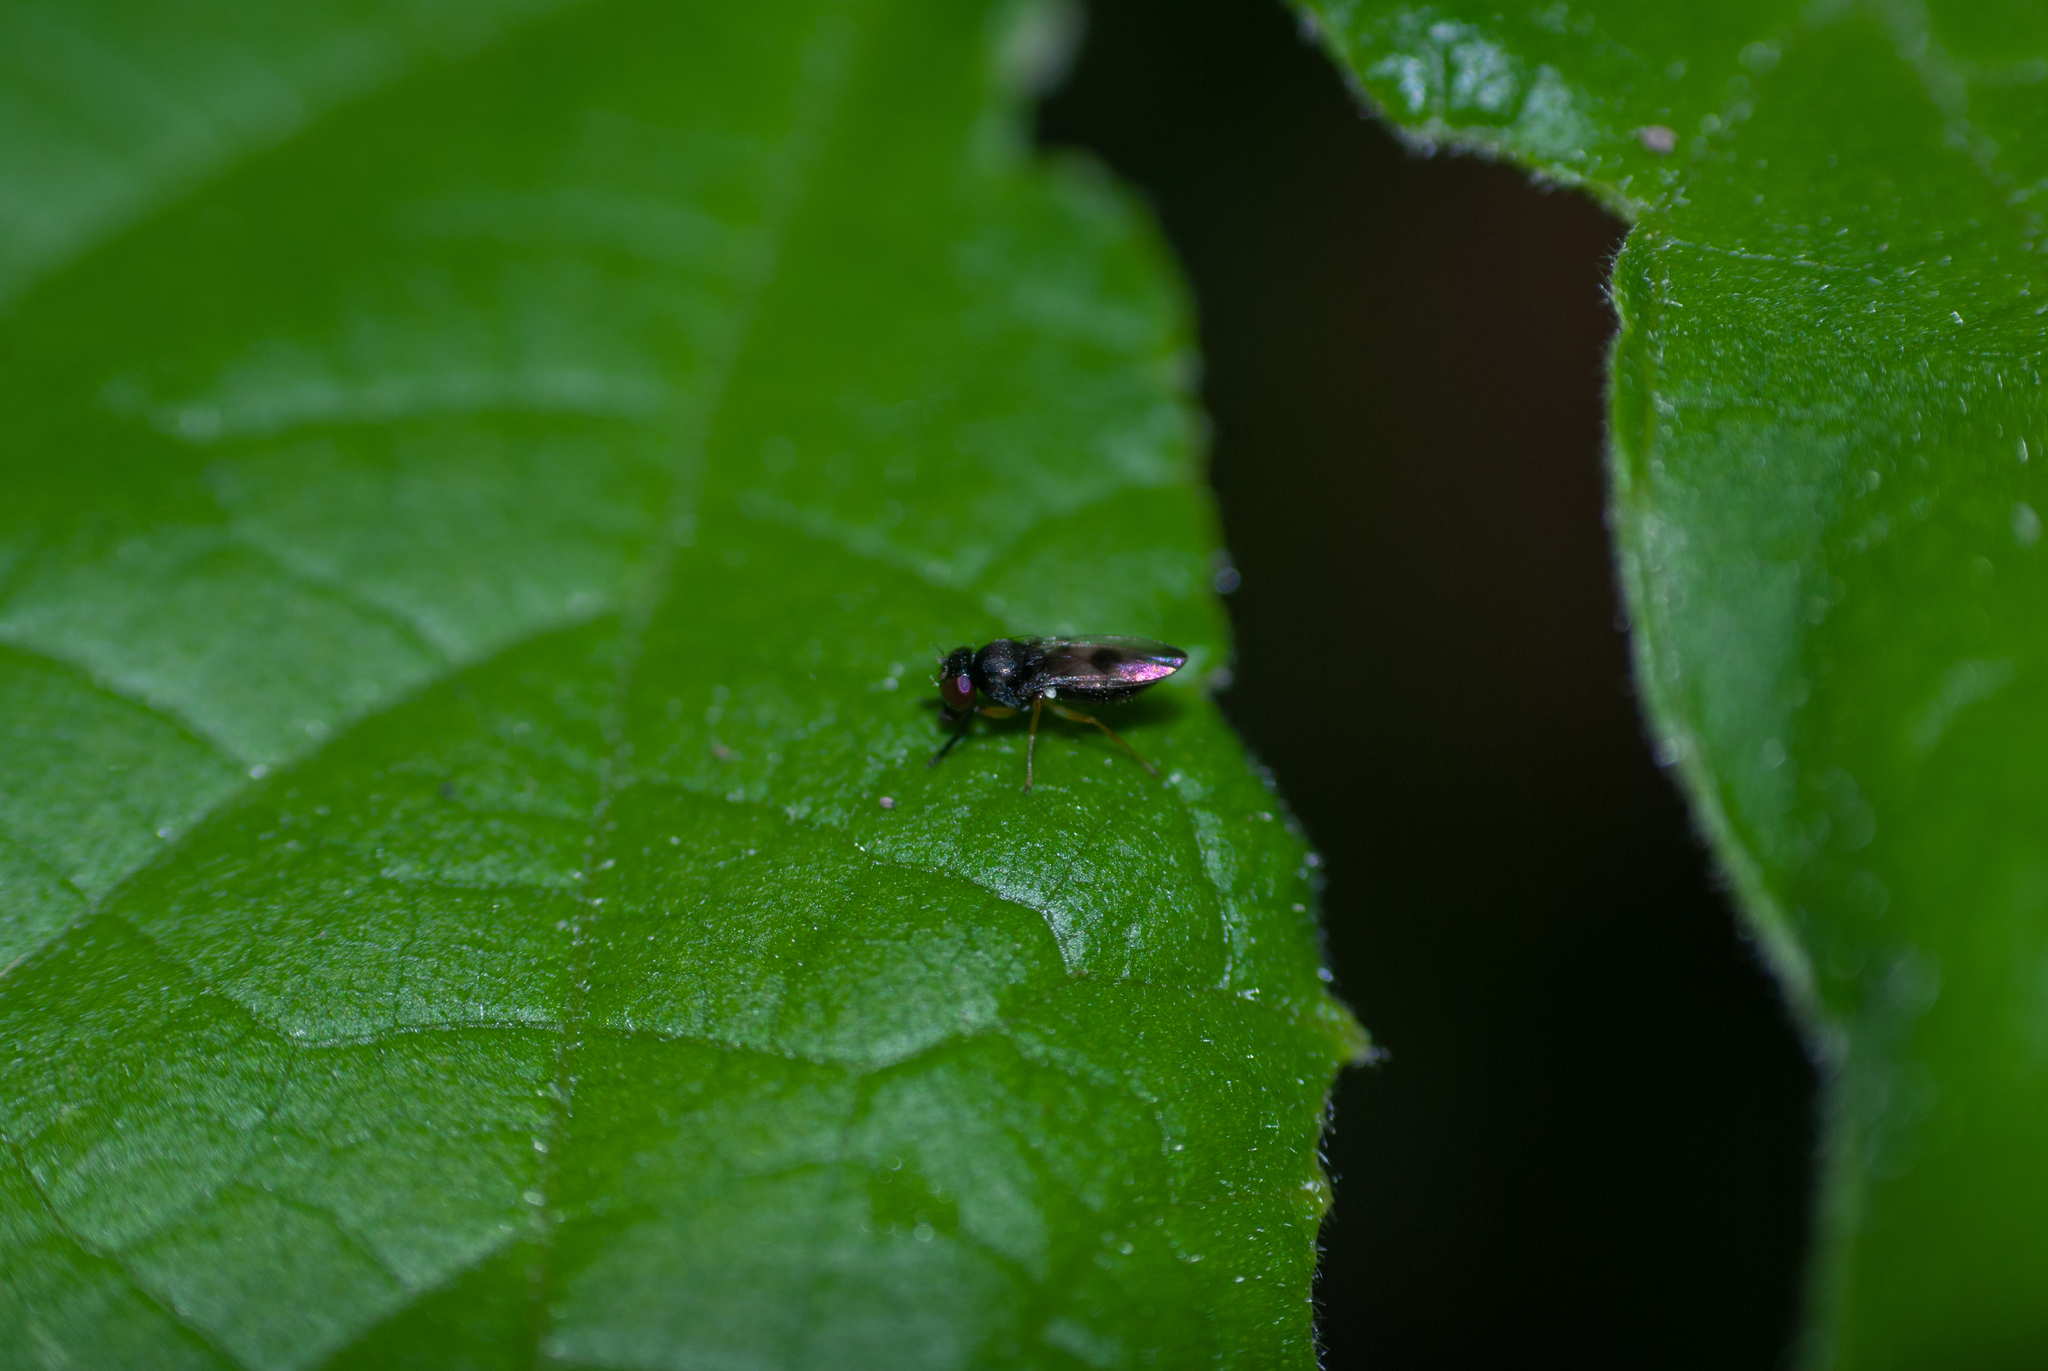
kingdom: Animalia
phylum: Arthropoda
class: Insecta
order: Diptera
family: Ephydridae
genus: Leptopsilopa
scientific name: Leptopsilopa nigricoxa
